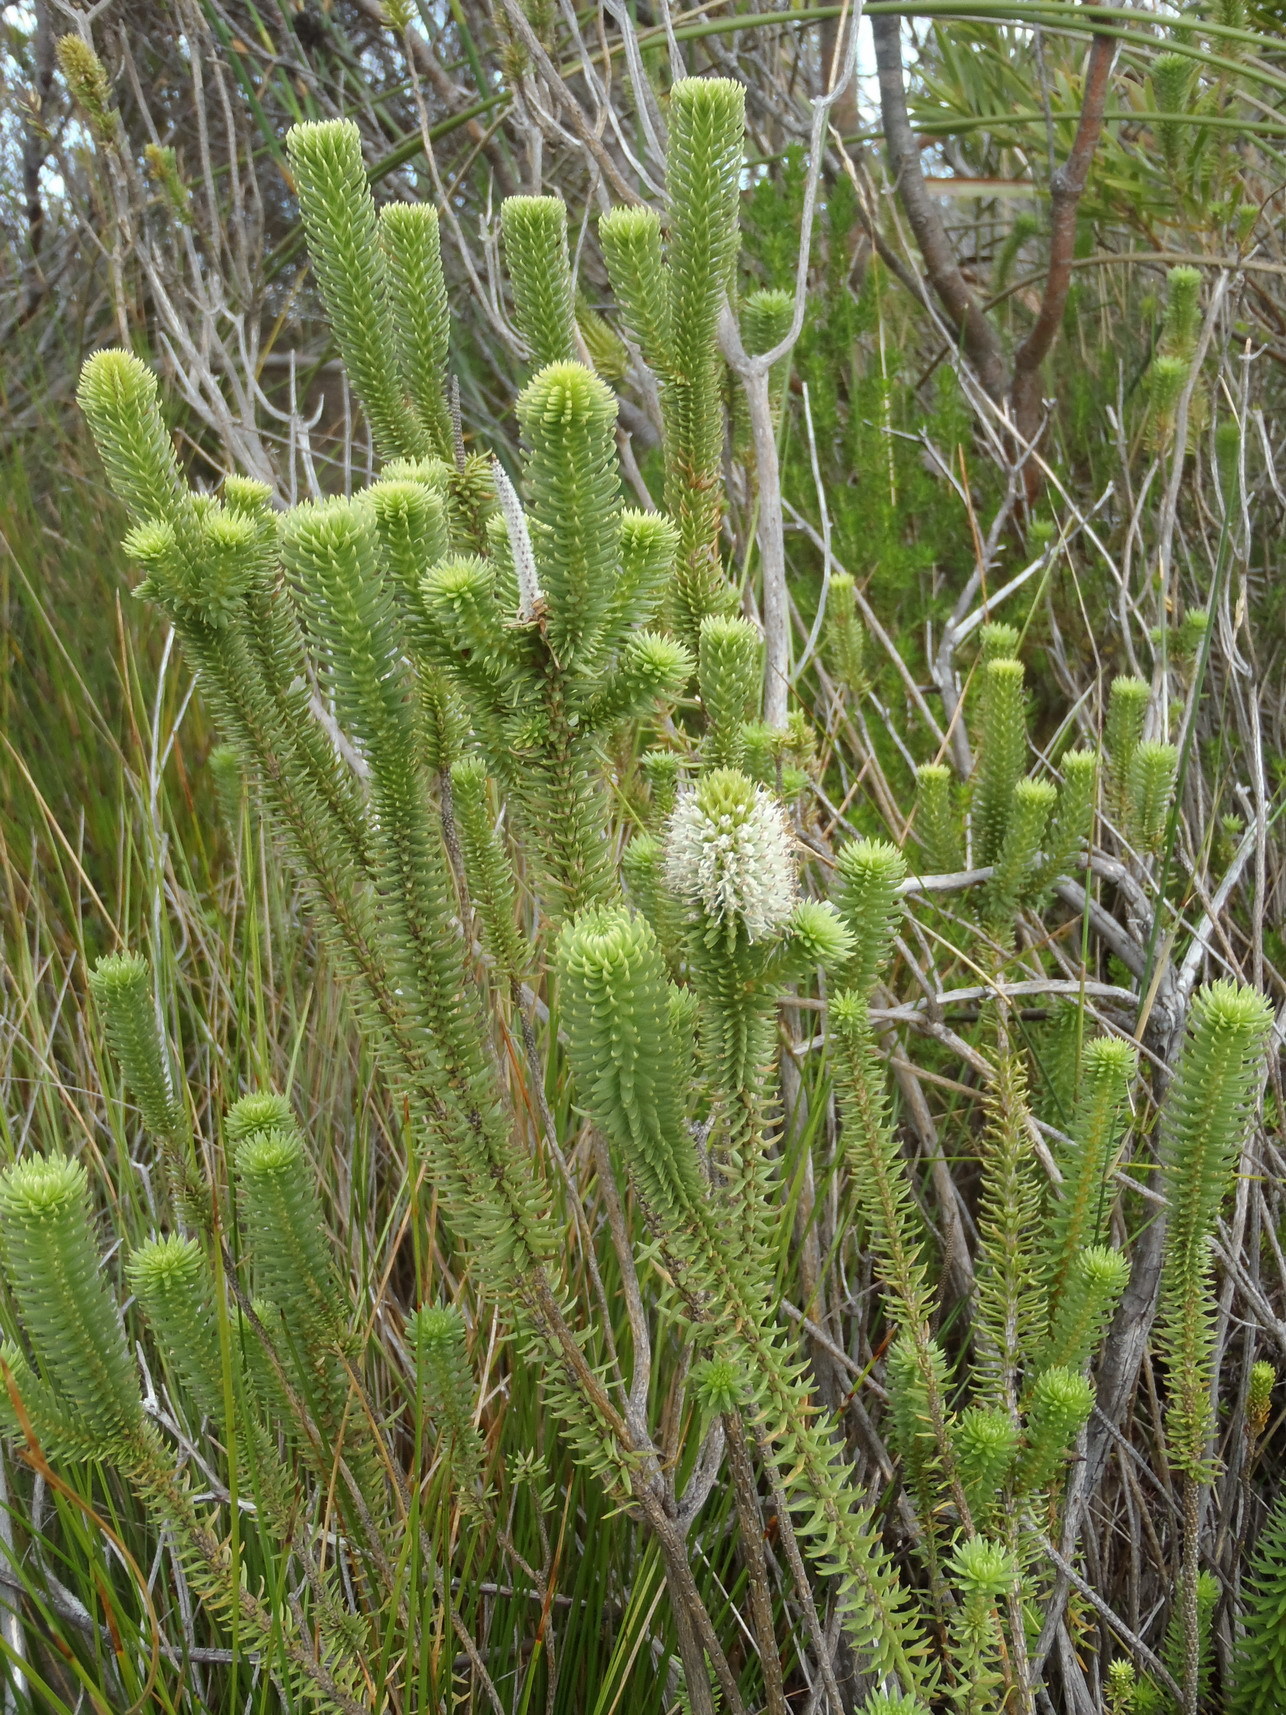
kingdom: Plantae
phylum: Tracheophyta
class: Magnoliopsida
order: Lamiales
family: Stilbaceae
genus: Stilbe
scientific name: Stilbe vestita
